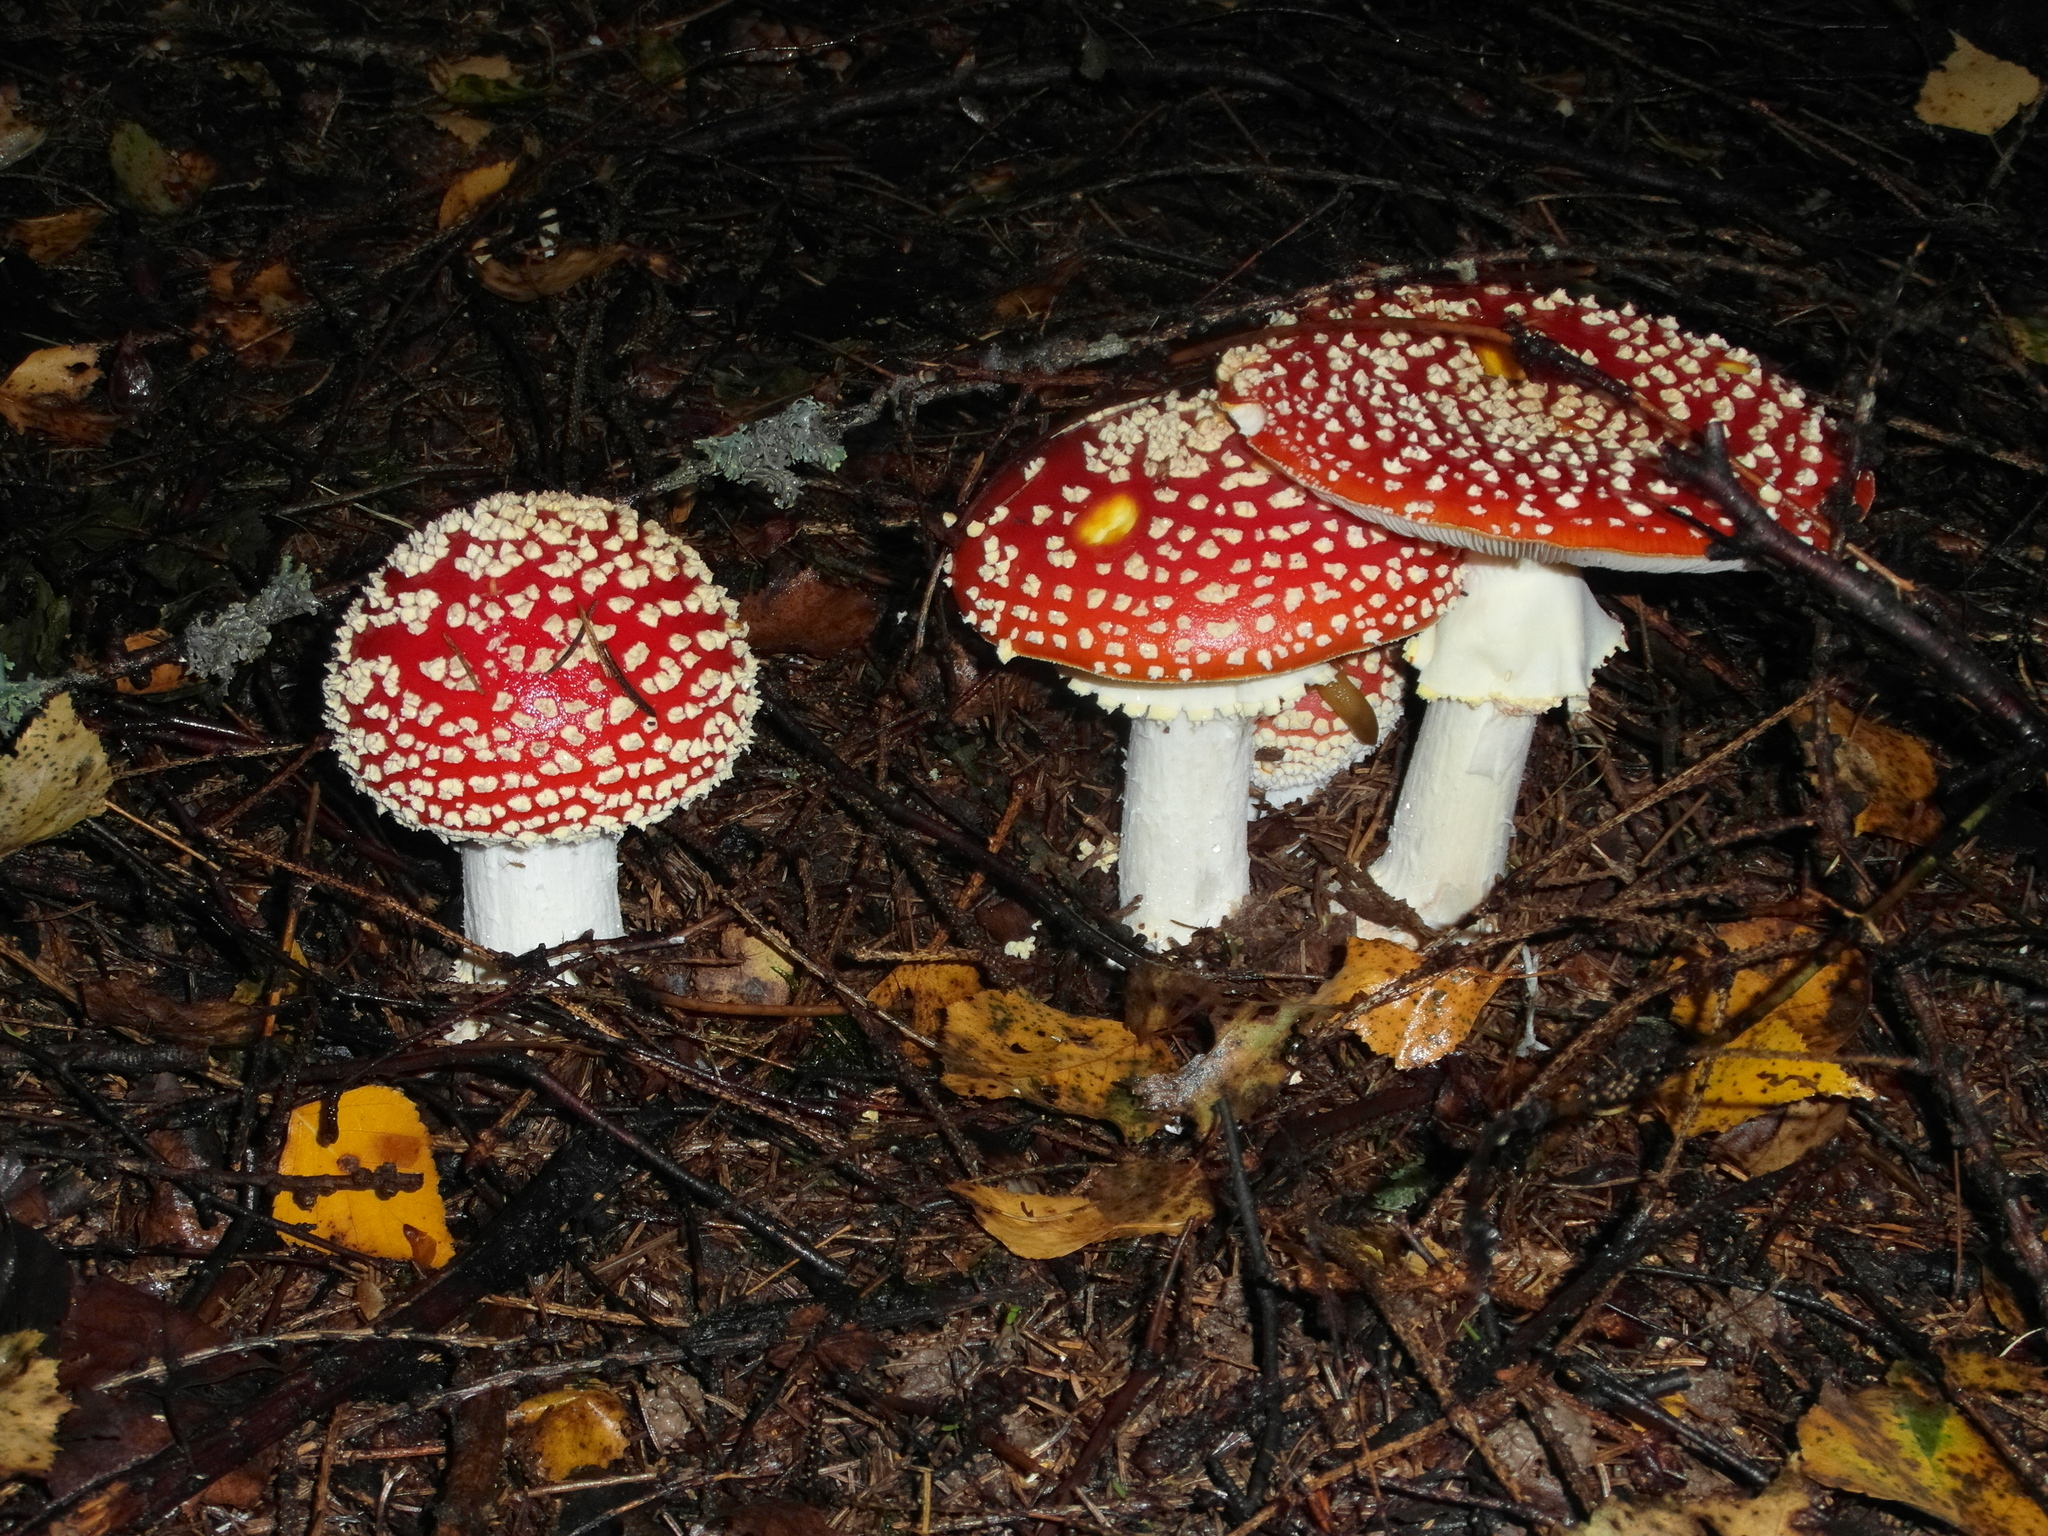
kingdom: Fungi
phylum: Basidiomycota
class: Agaricomycetes
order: Agaricales
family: Amanitaceae
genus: Amanita
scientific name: Amanita muscaria
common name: Fly agaric
